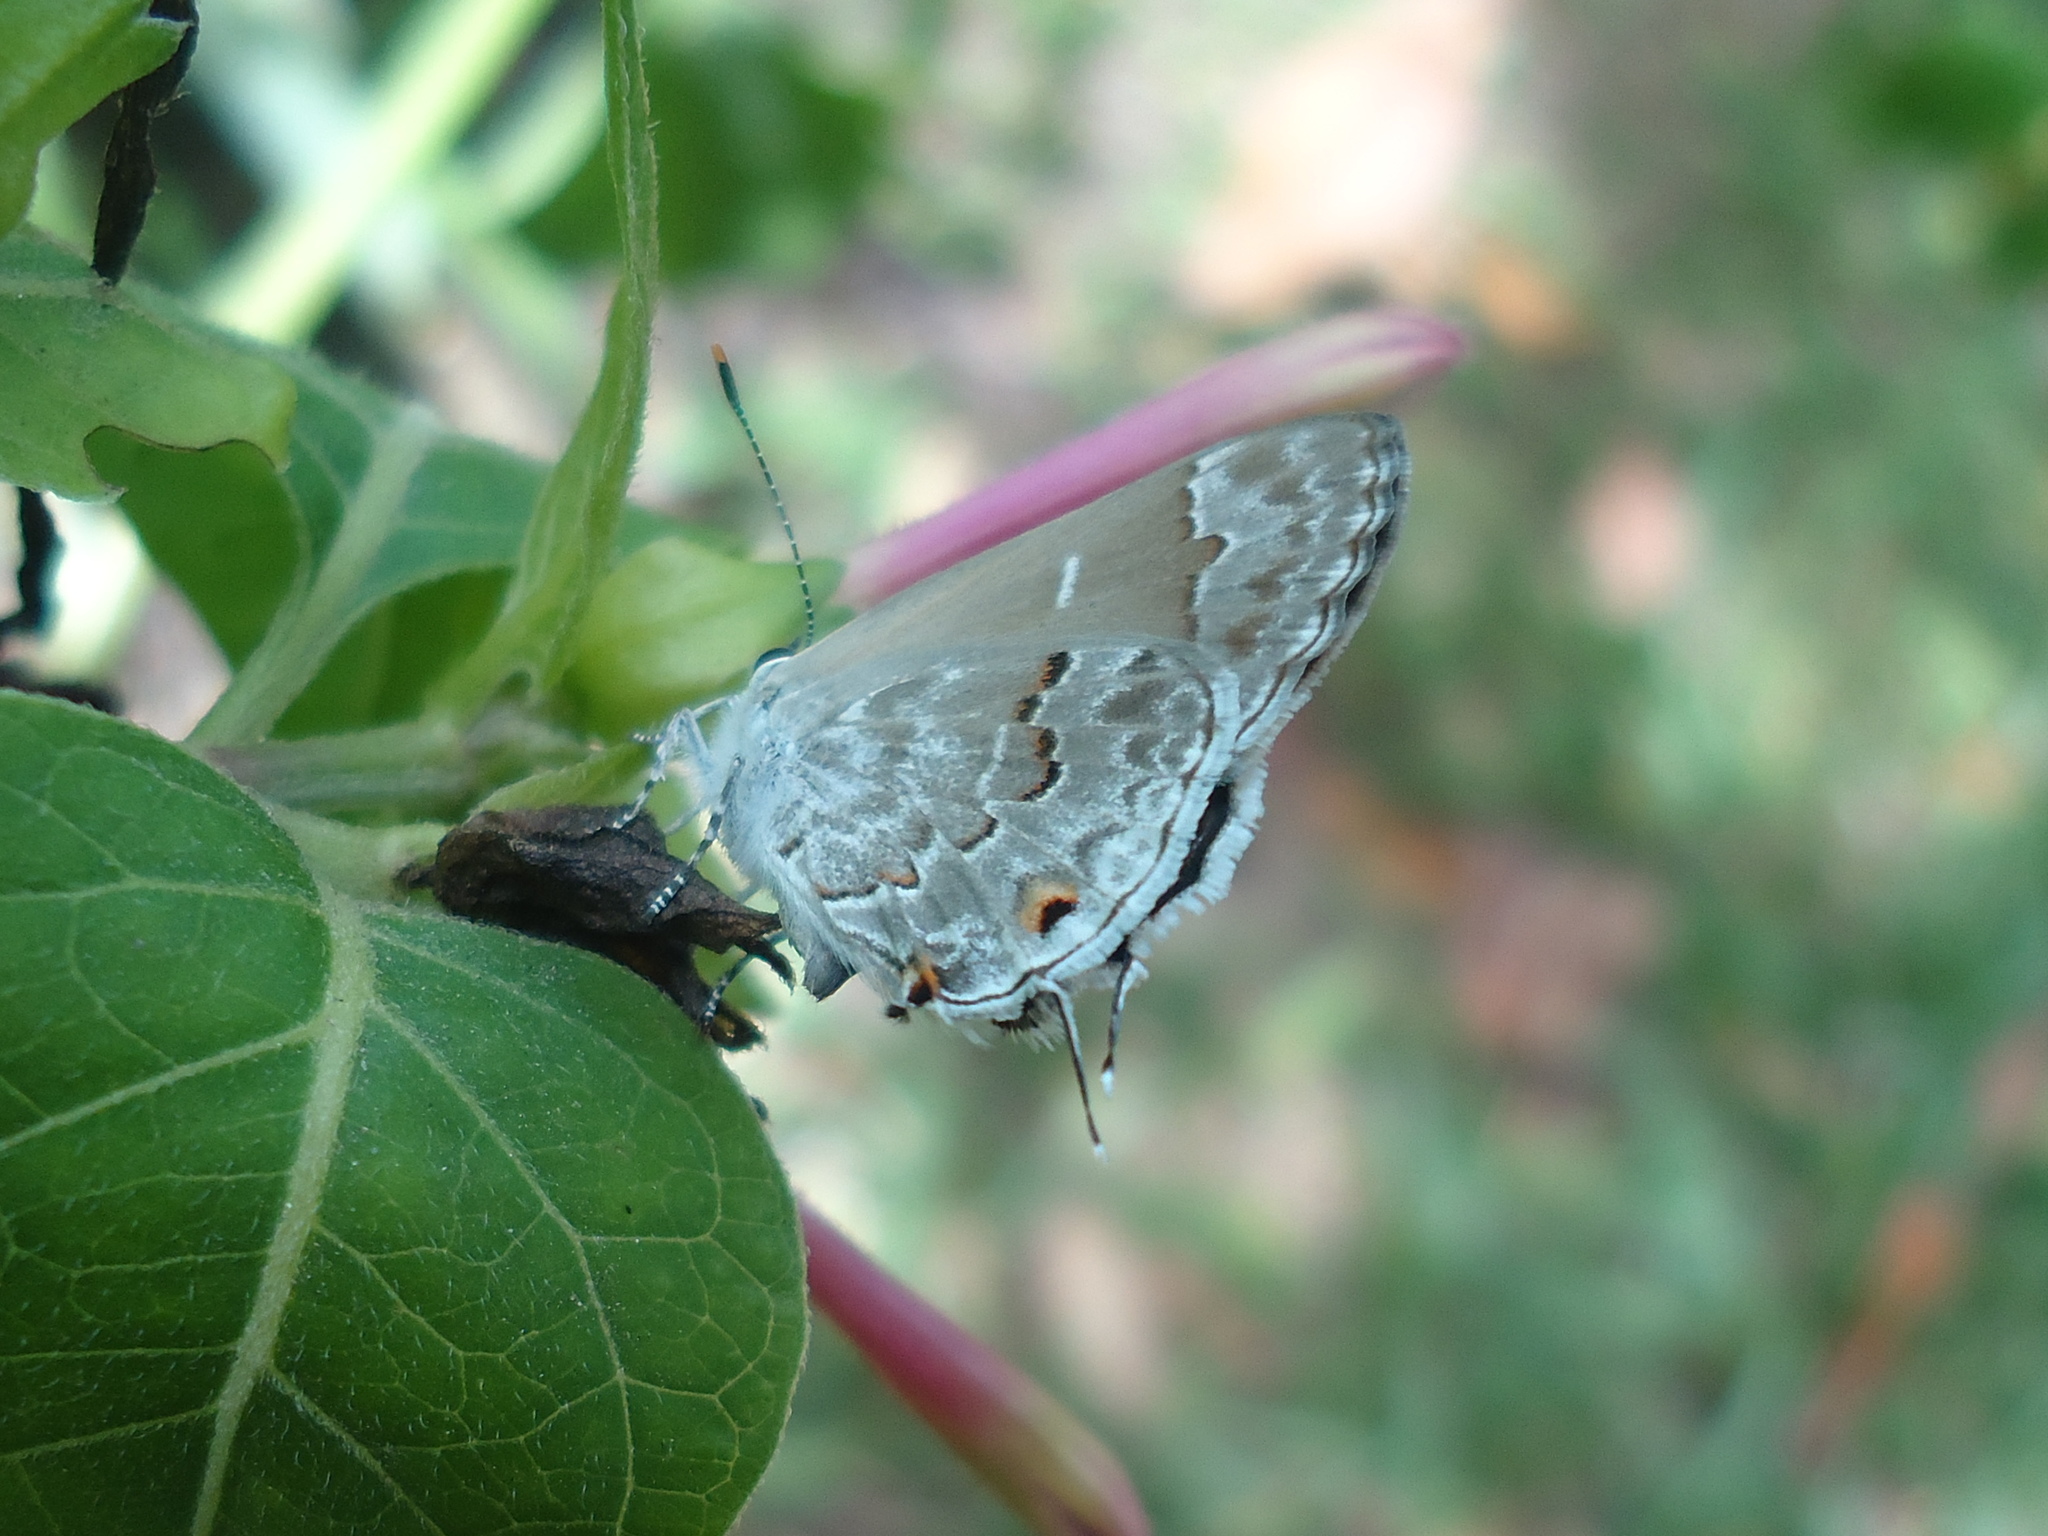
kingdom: Animalia
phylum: Arthropoda
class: Insecta
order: Lepidoptera
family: Lycaenidae
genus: Strymon
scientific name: Strymon mulucha
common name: Mottled scrub-hairstreak
